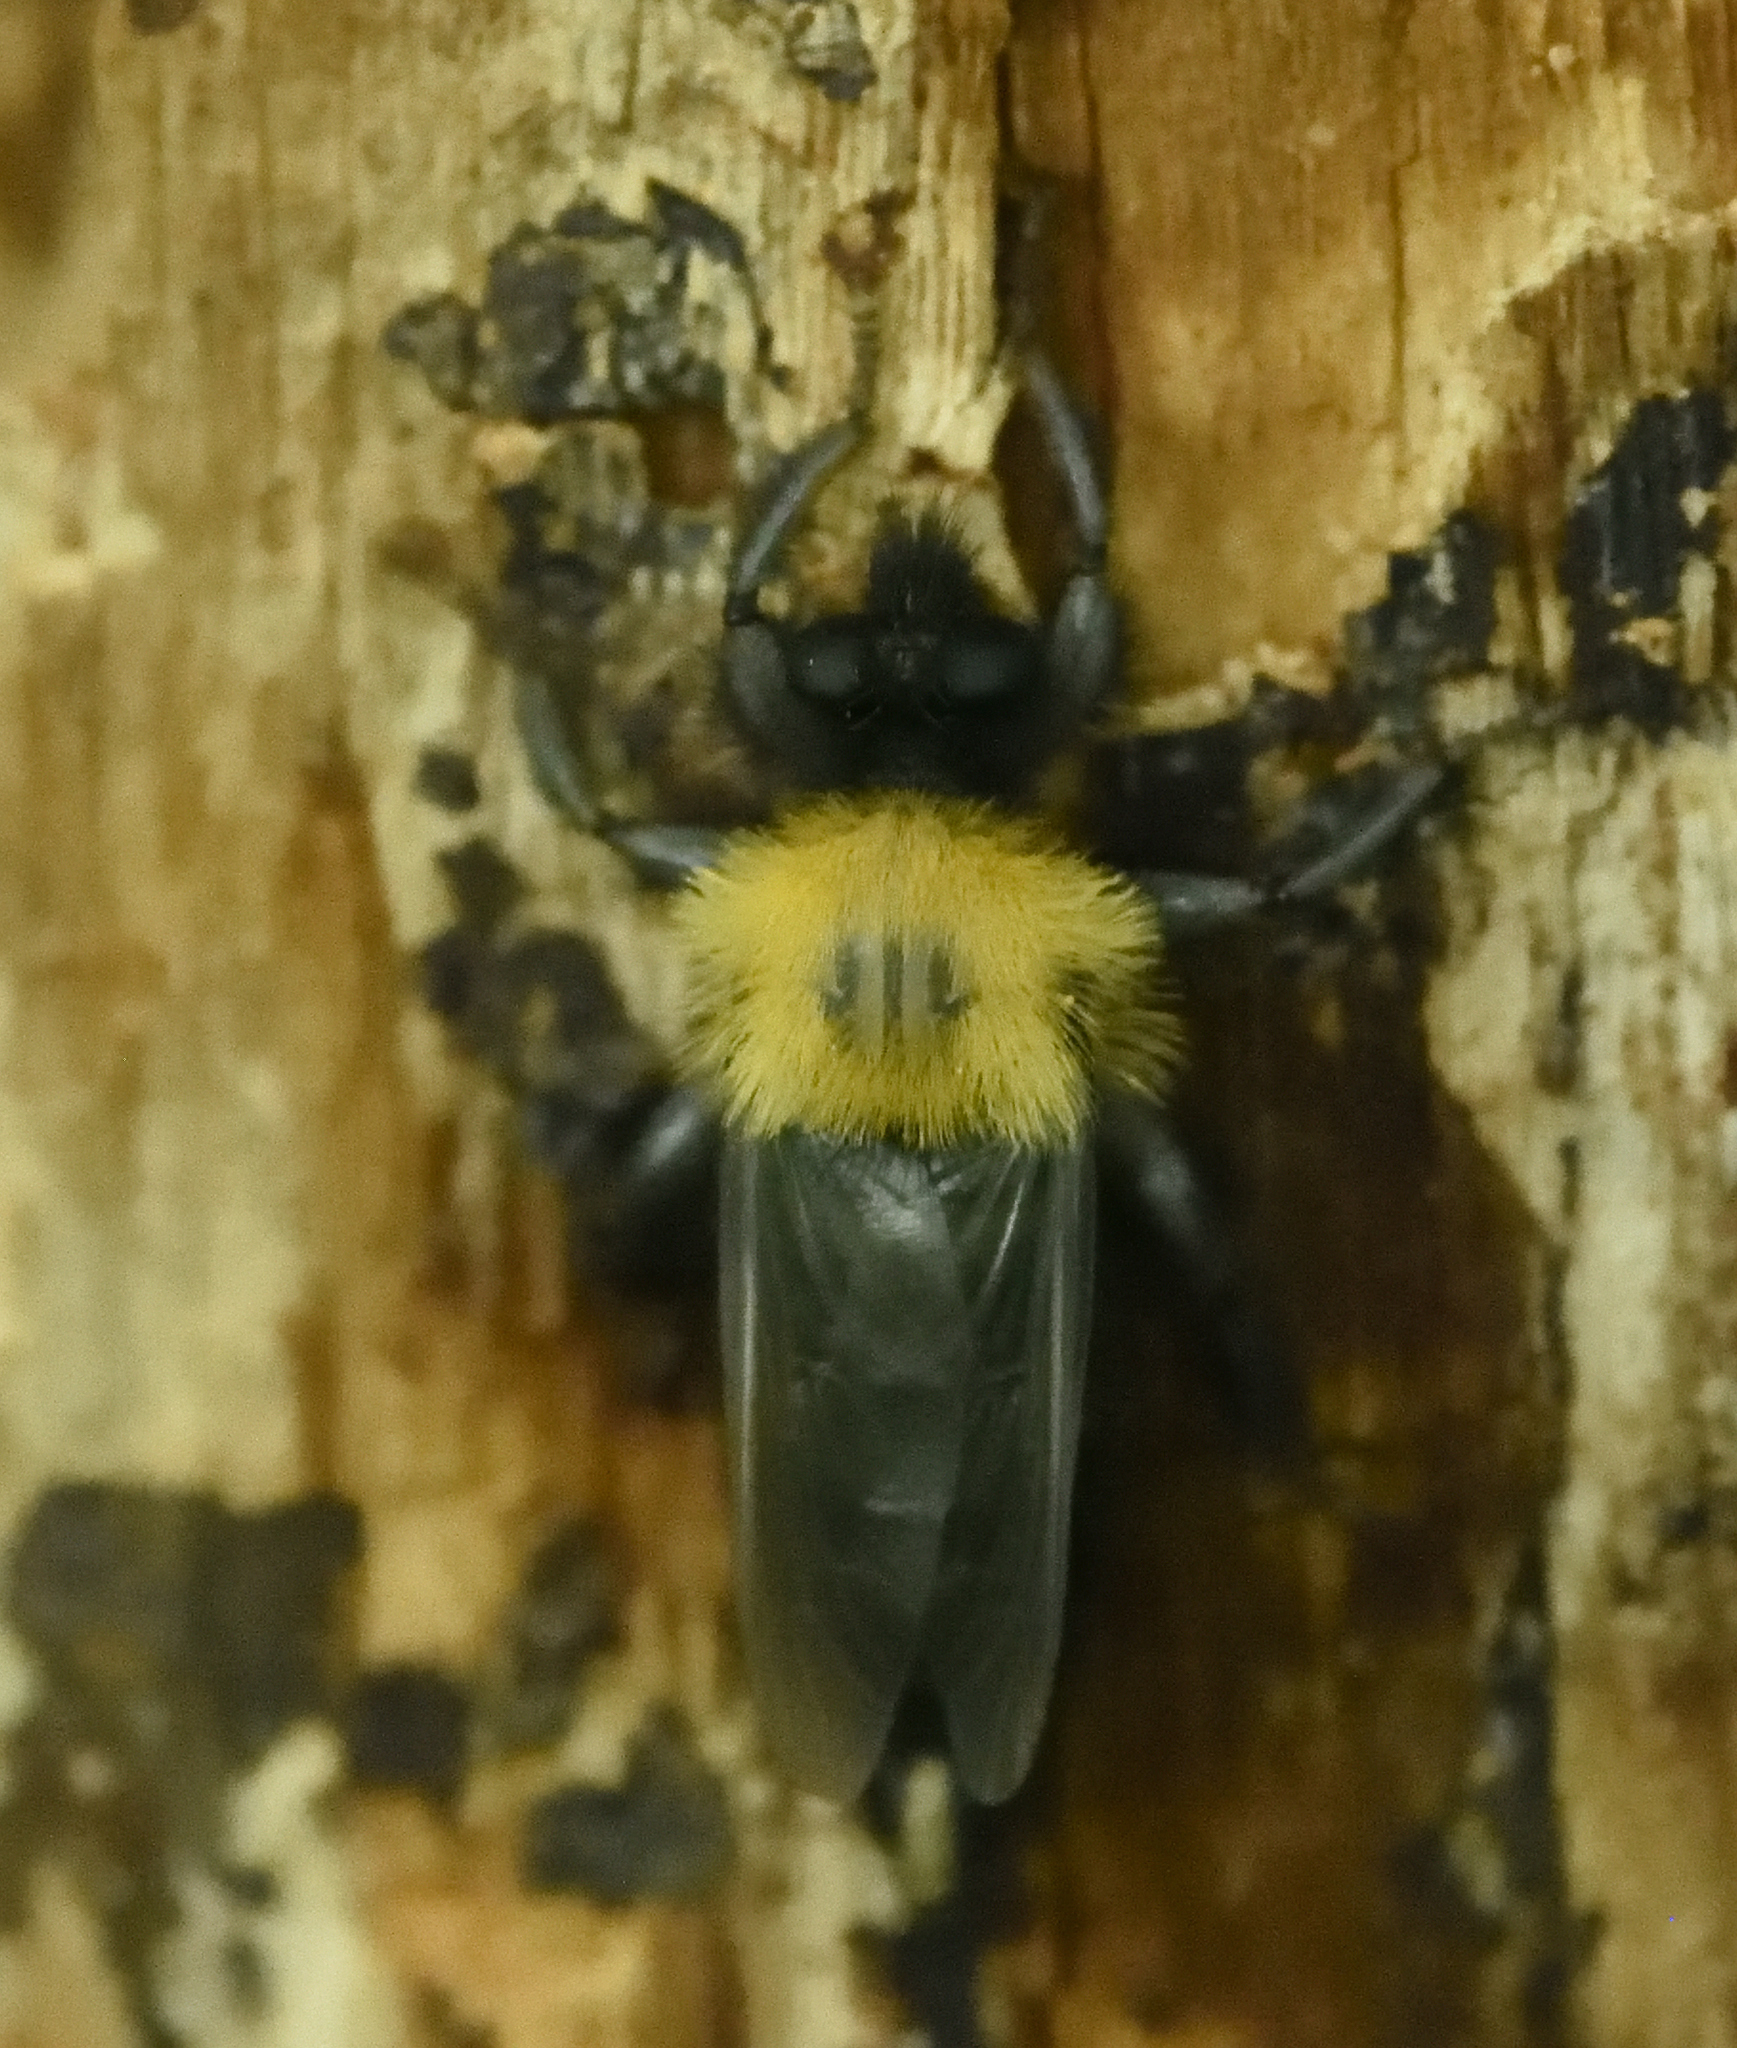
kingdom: Animalia
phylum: Arthropoda
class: Insecta
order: Diptera
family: Asilidae
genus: Laphria
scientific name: Laphria thoracica
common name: Bumble bee mimic robber fly
